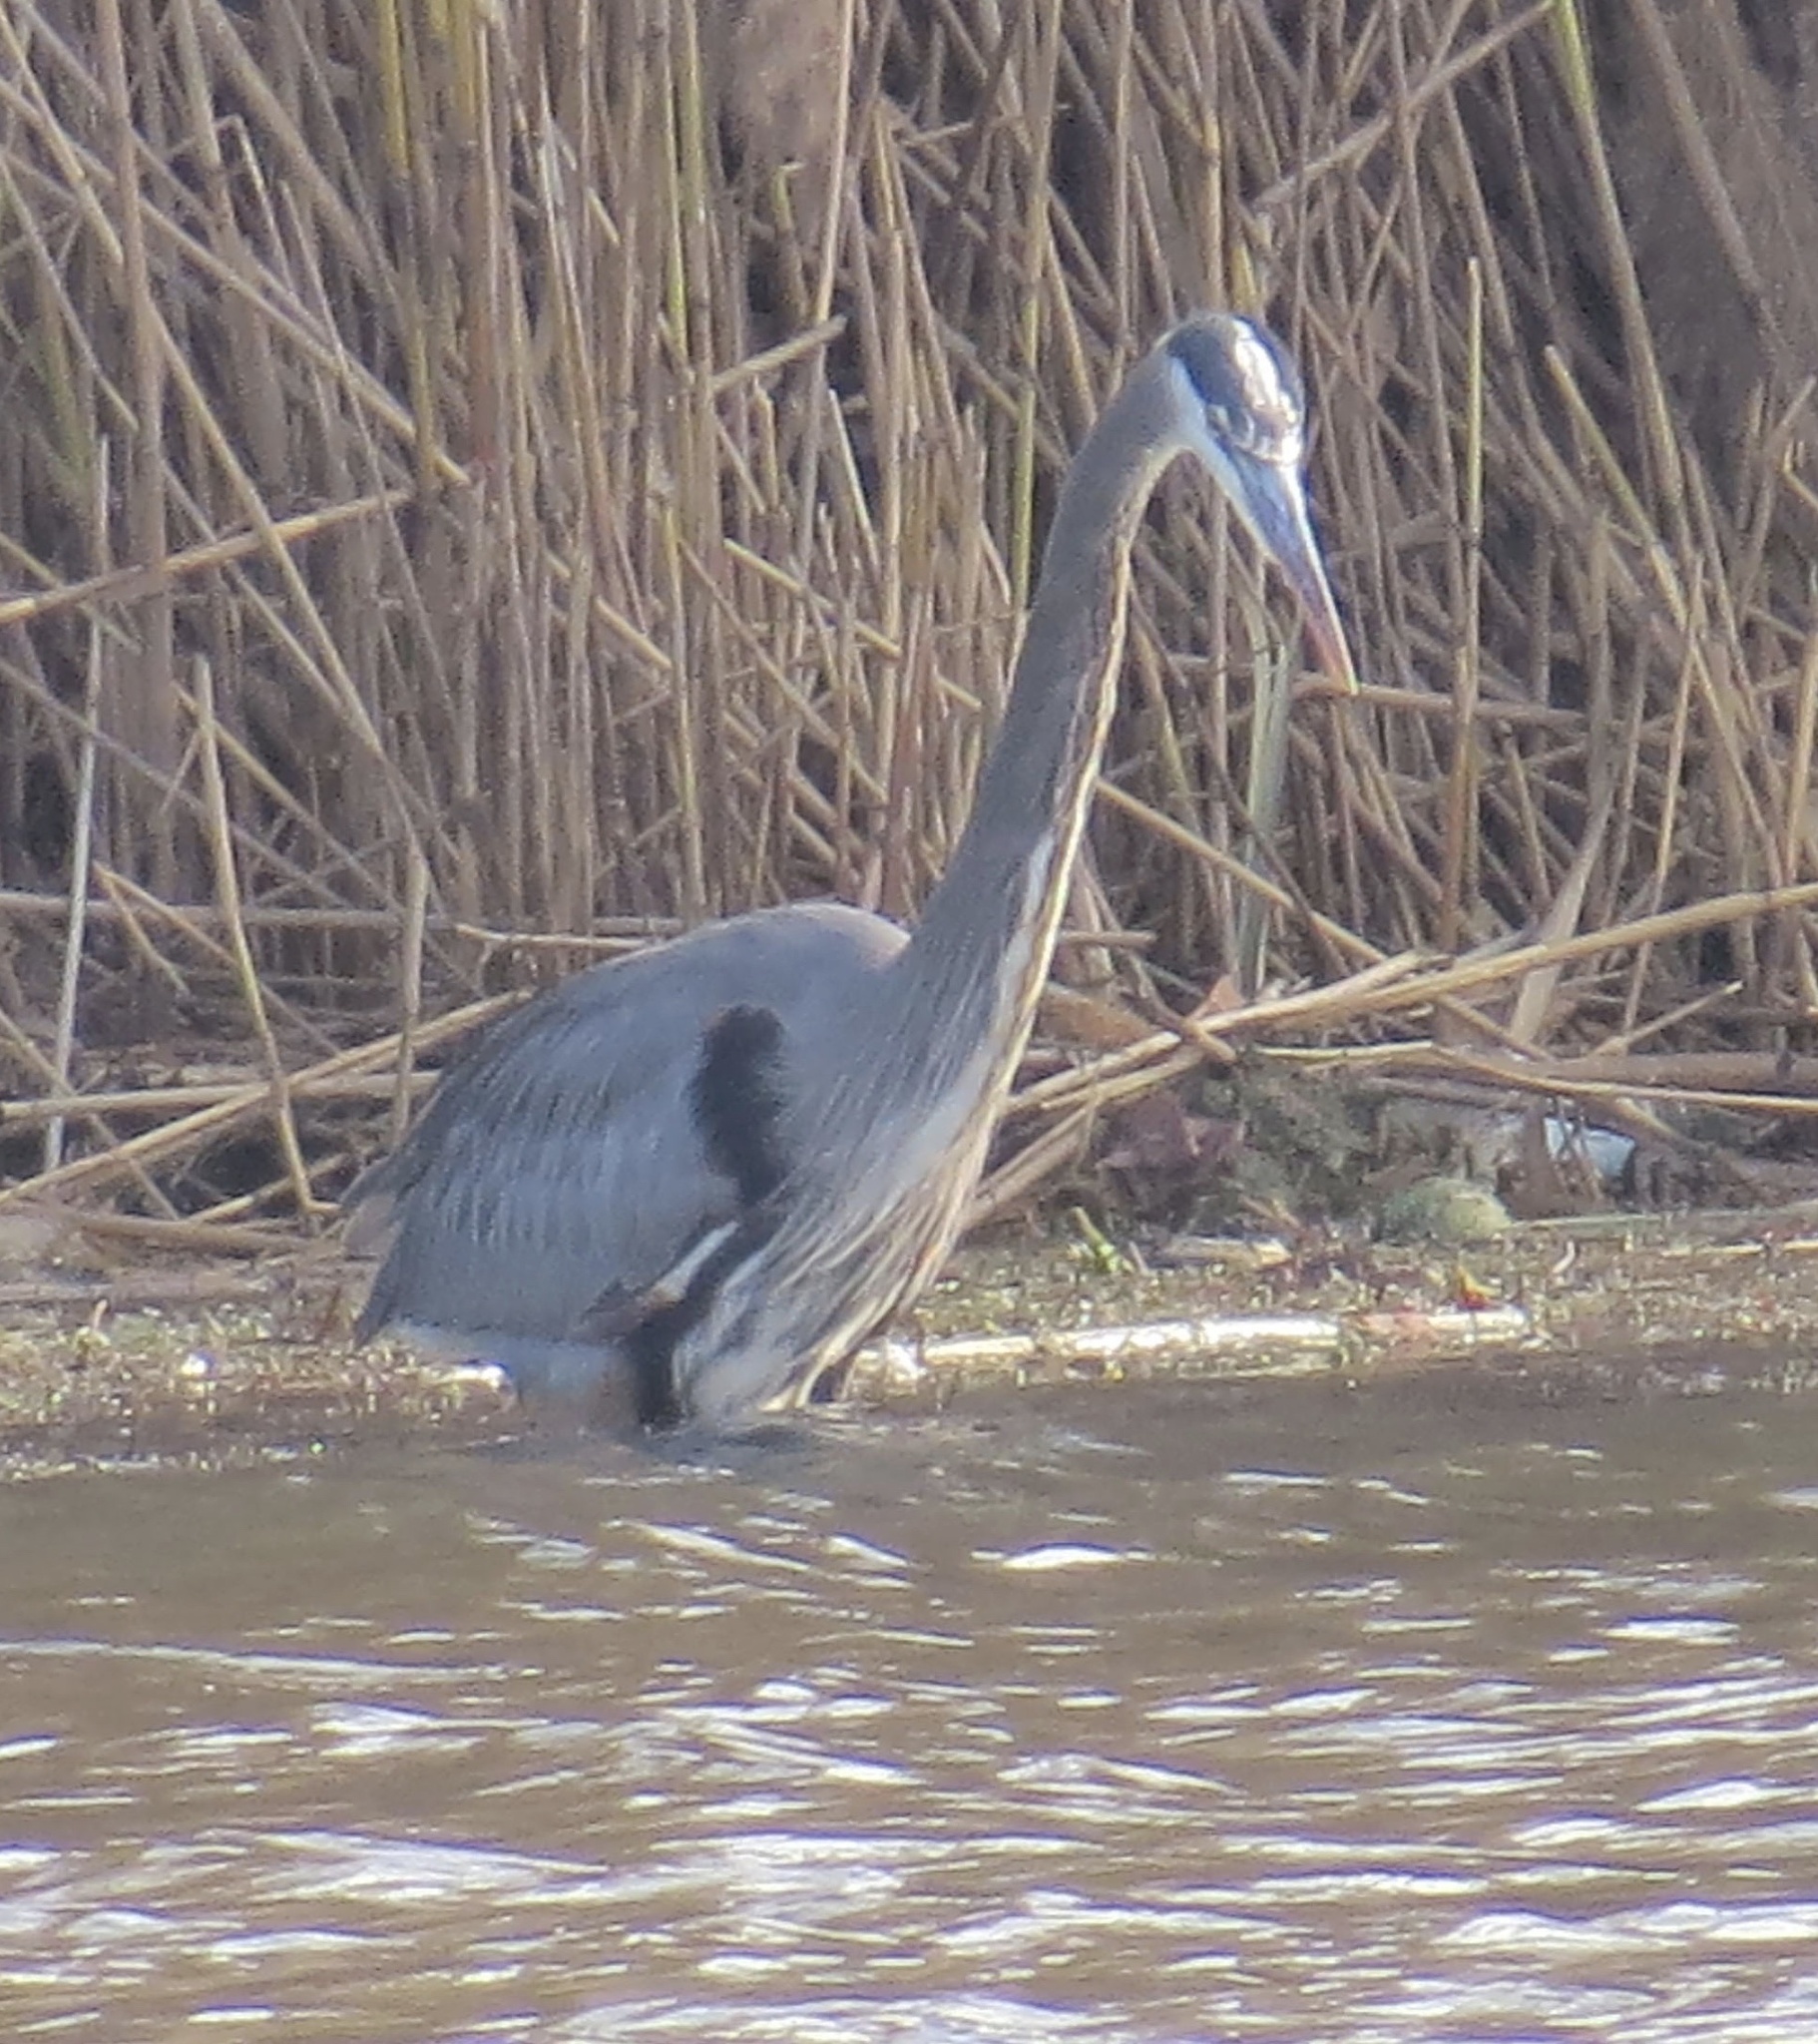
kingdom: Animalia
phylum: Chordata
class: Aves
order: Pelecaniformes
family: Ardeidae
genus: Ardea
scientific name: Ardea herodias
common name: Great blue heron
